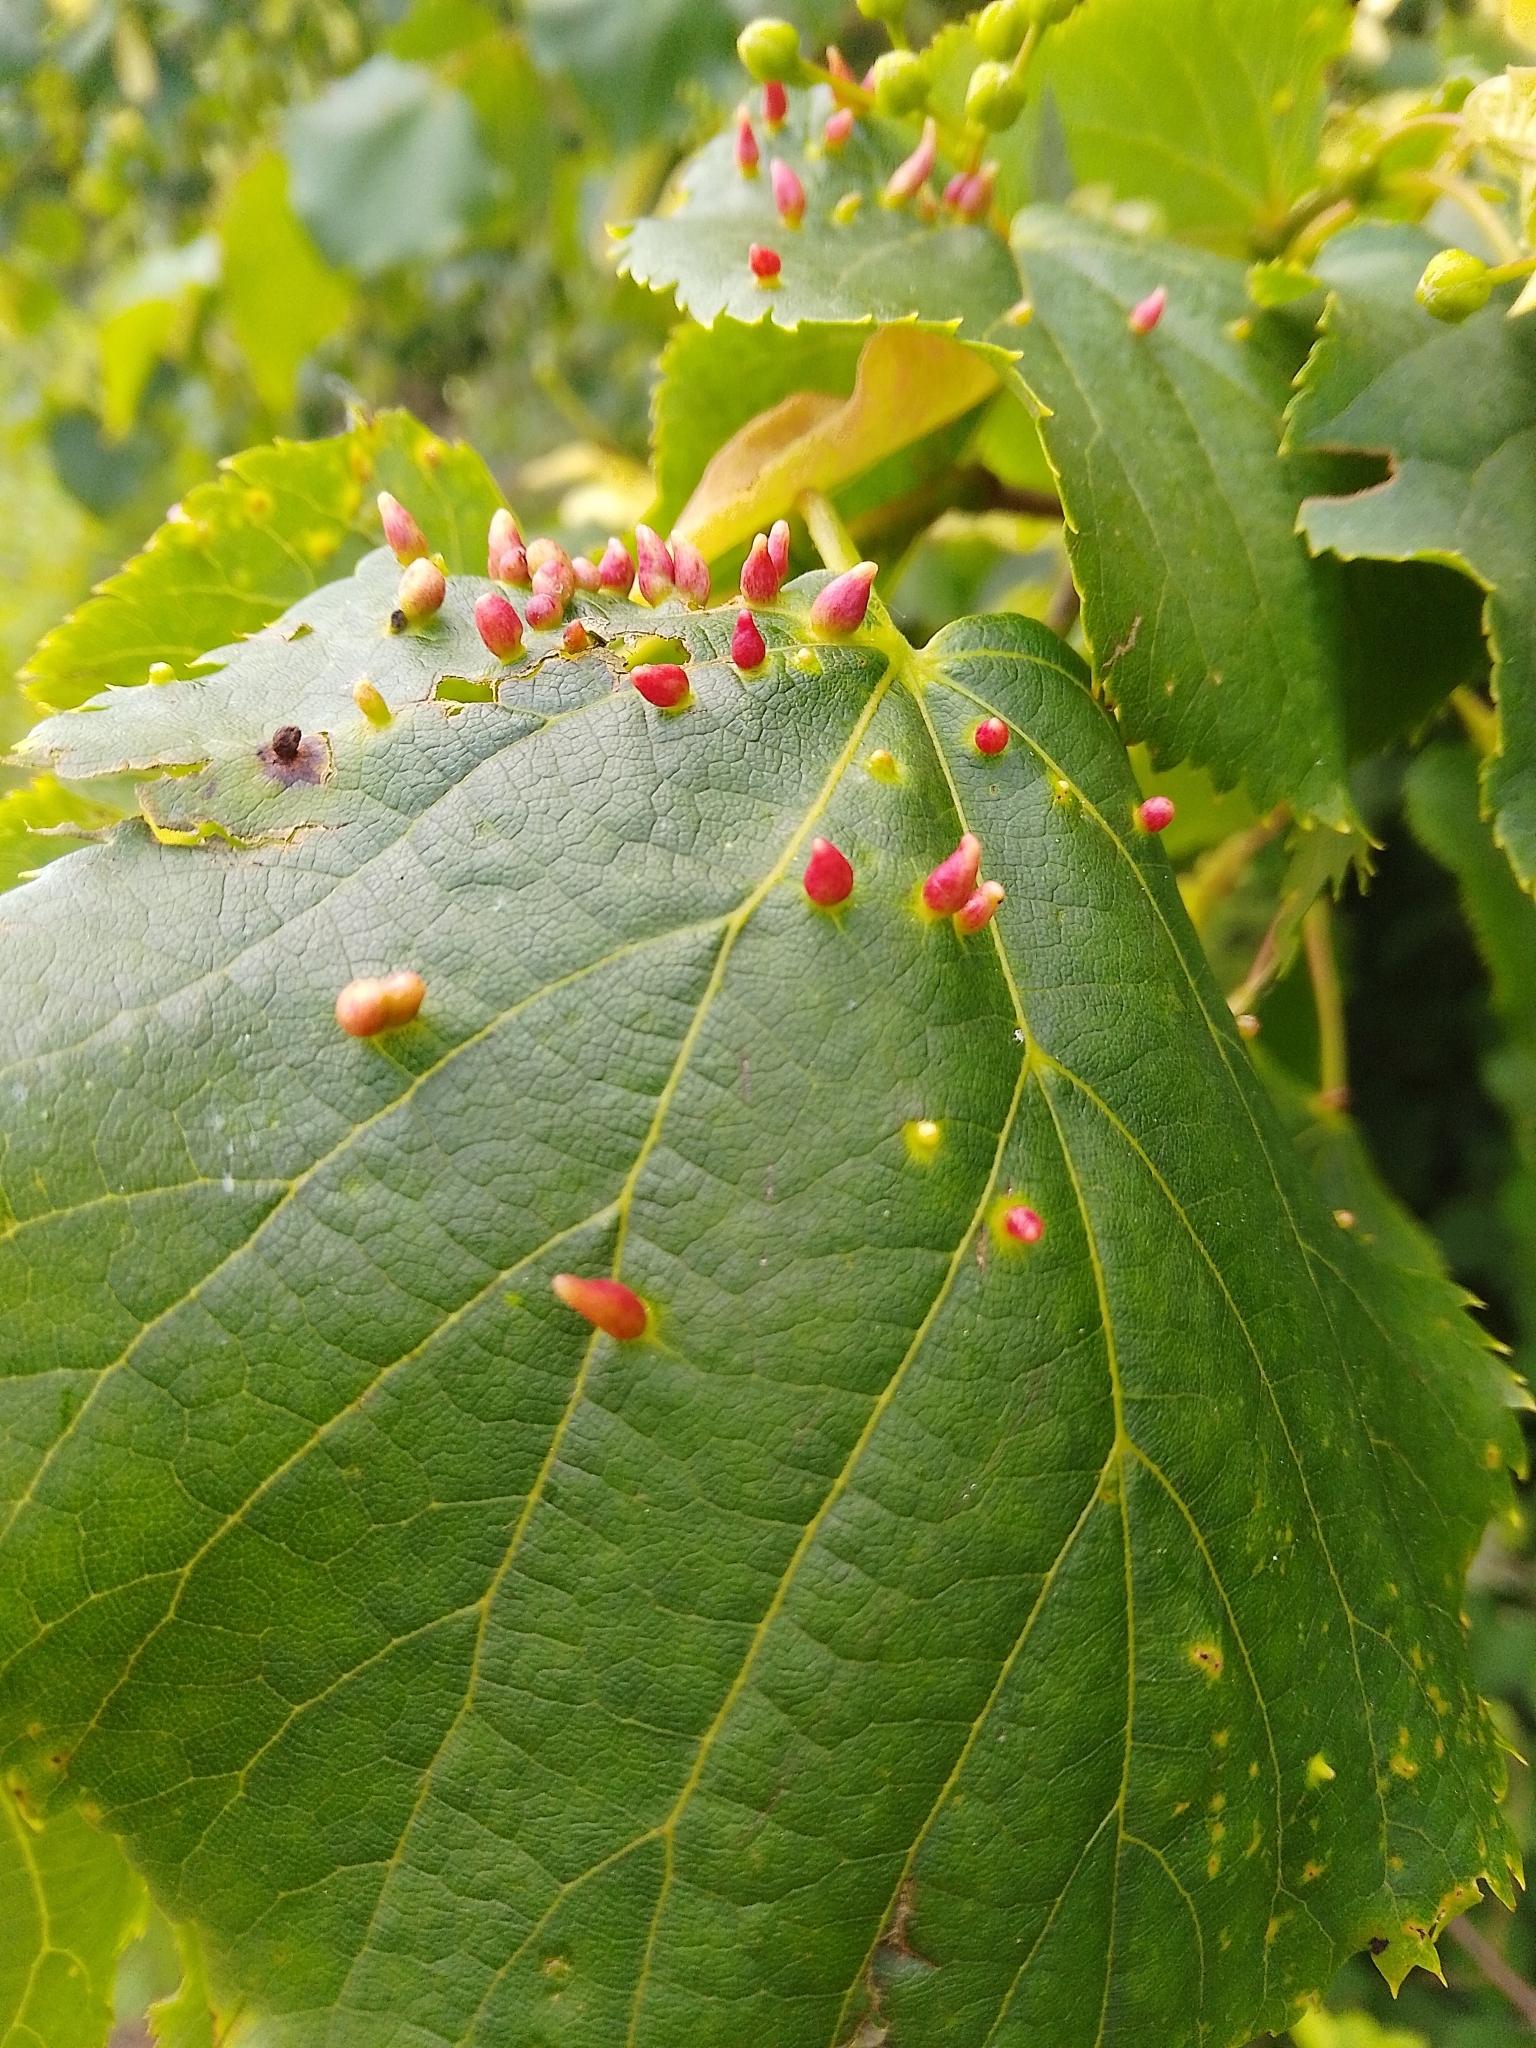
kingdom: Animalia
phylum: Arthropoda
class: Arachnida
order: Trombidiformes
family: Eriophyidae
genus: Eriophyes
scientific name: Eriophyes tiliae
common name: Red nail gall mite
